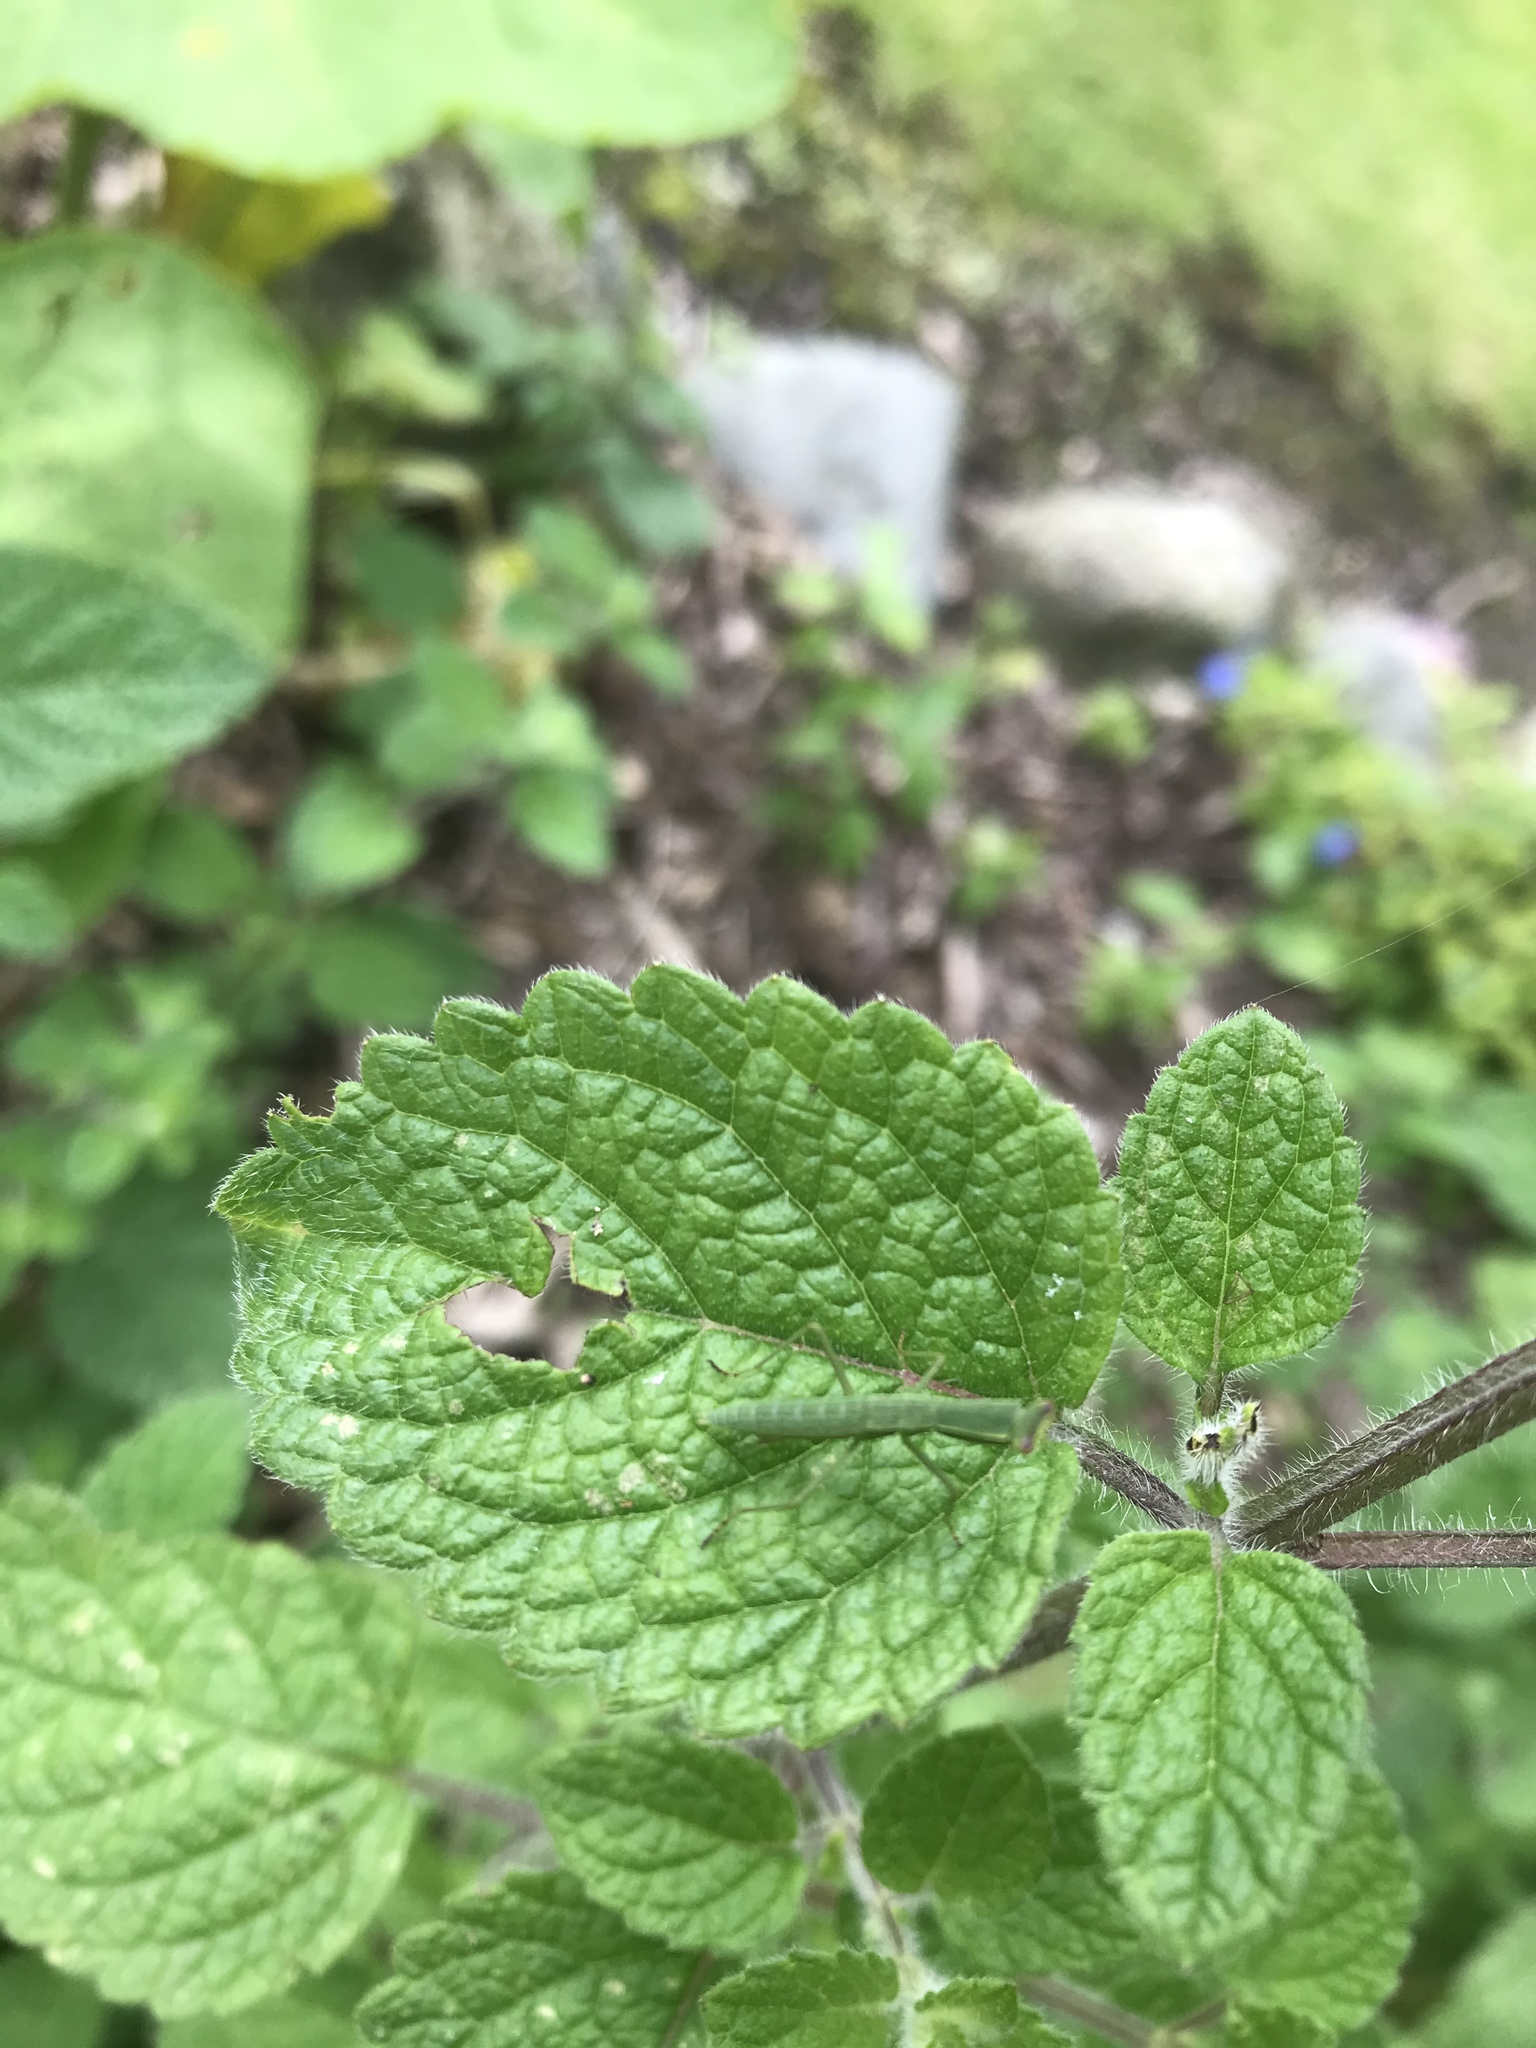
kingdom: Animalia
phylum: Arthropoda
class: Insecta
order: Mantodea
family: Mantidae
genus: Orthodera
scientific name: Orthodera novaezealandiae
